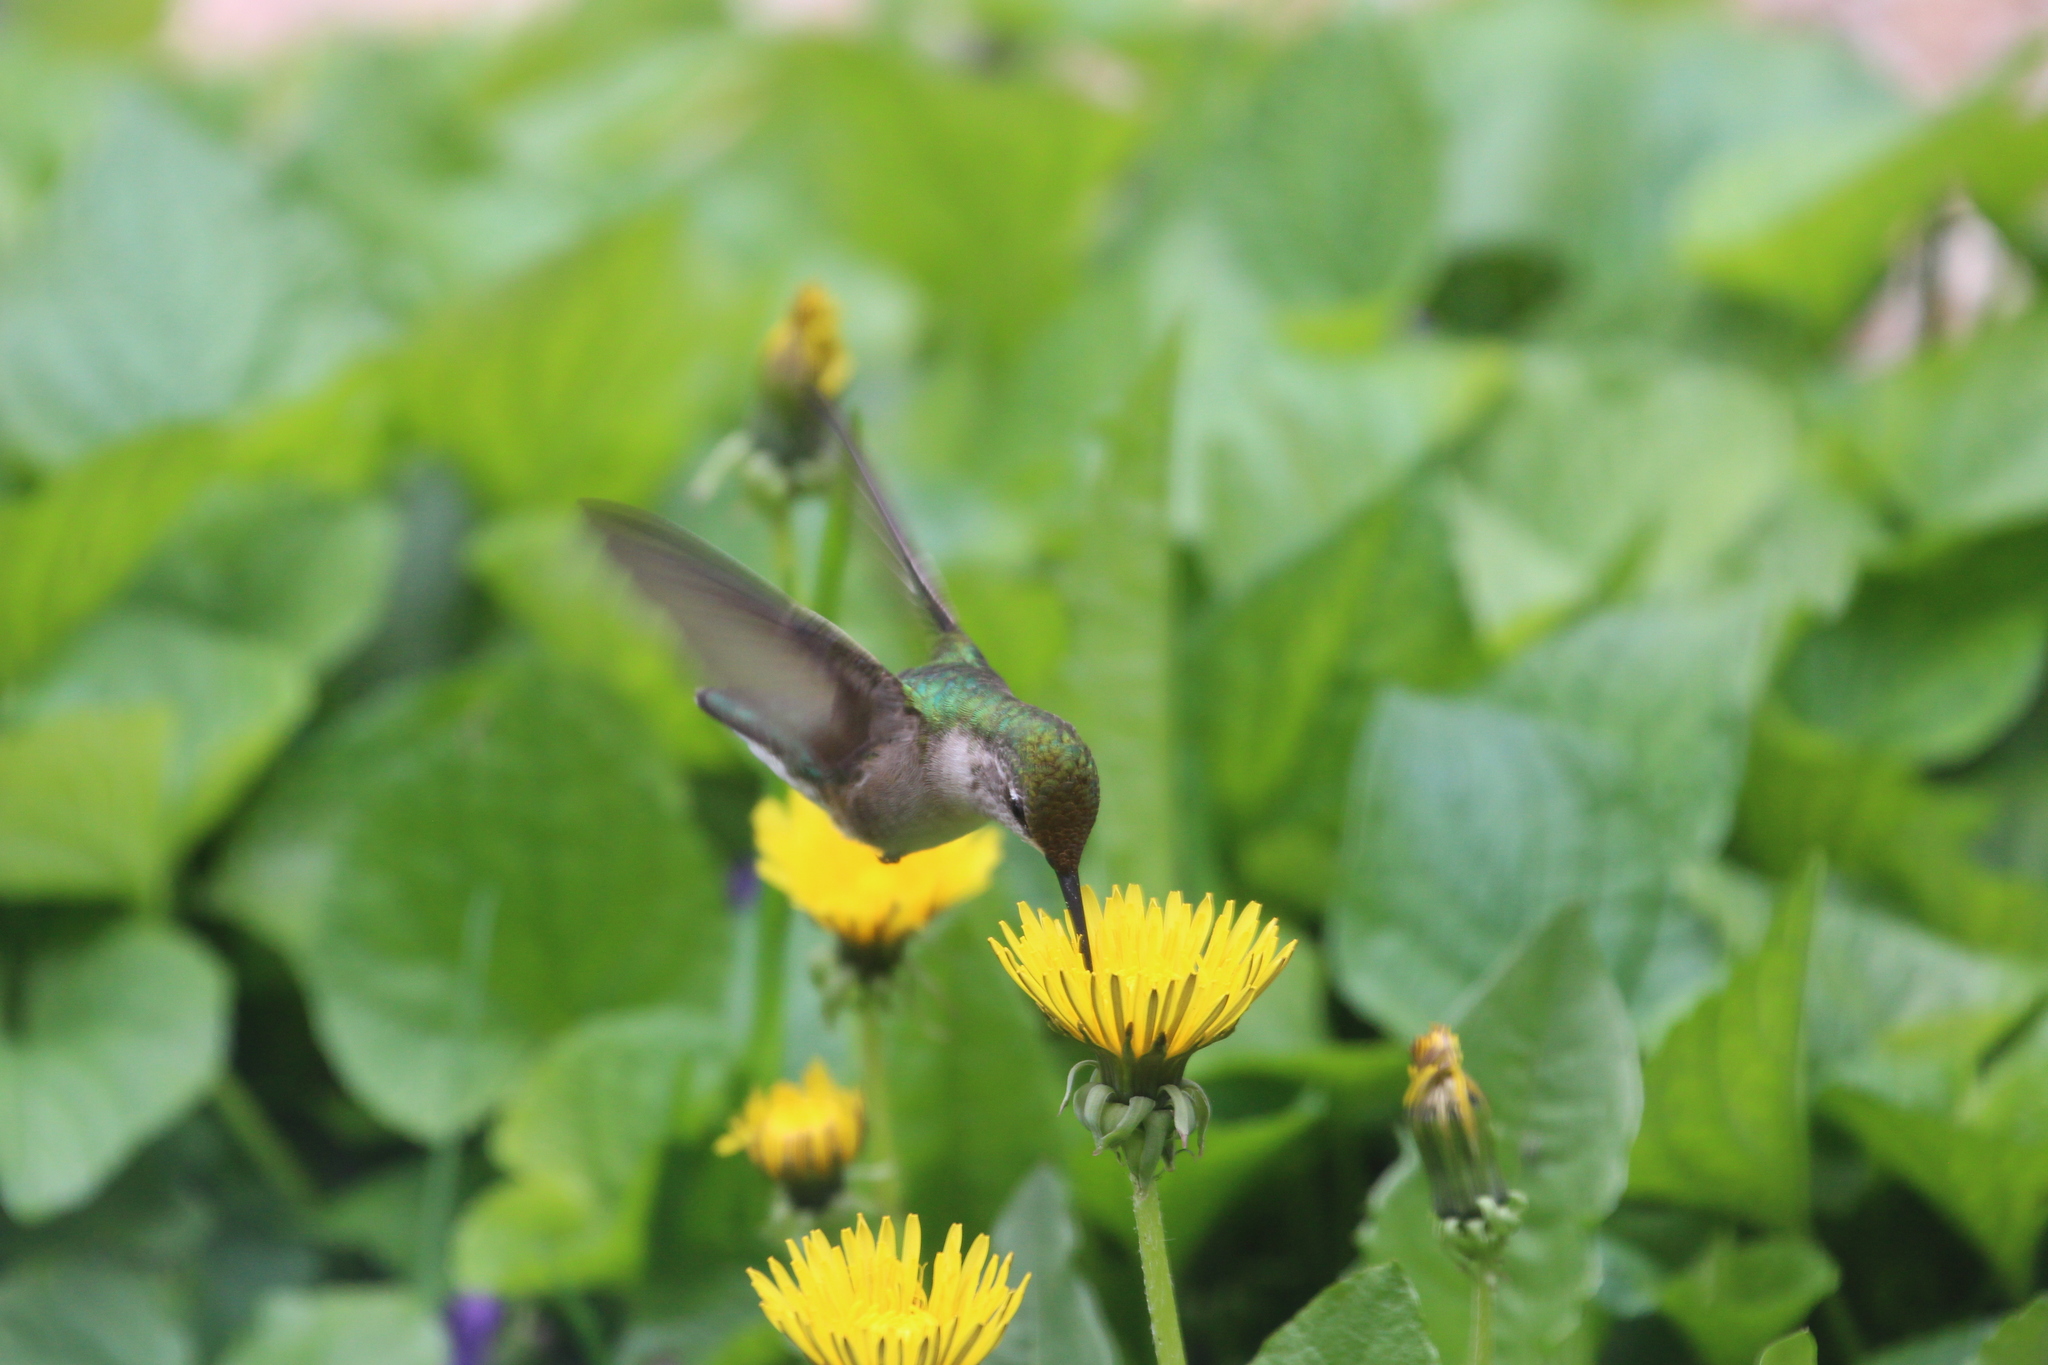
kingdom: Animalia
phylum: Chordata
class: Aves
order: Apodiformes
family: Trochilidae
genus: Archilochus
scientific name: Archilochus colubris
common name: Ruby-throated hummingbird
